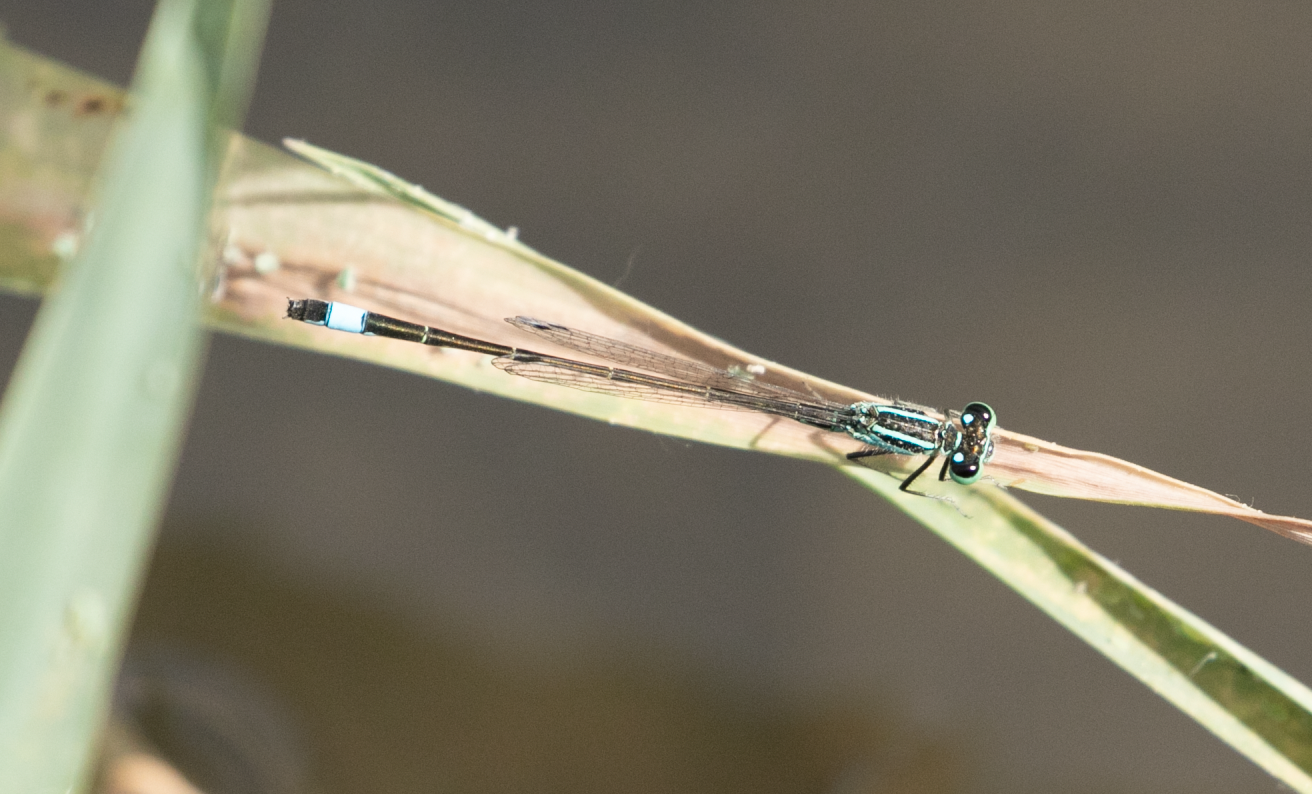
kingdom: Animalia
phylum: Arthropoda
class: Insecta
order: Odonata
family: Coenagrionidae
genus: Ischnura
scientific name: Ischnura elegans
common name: Blue-tailed damselfly
